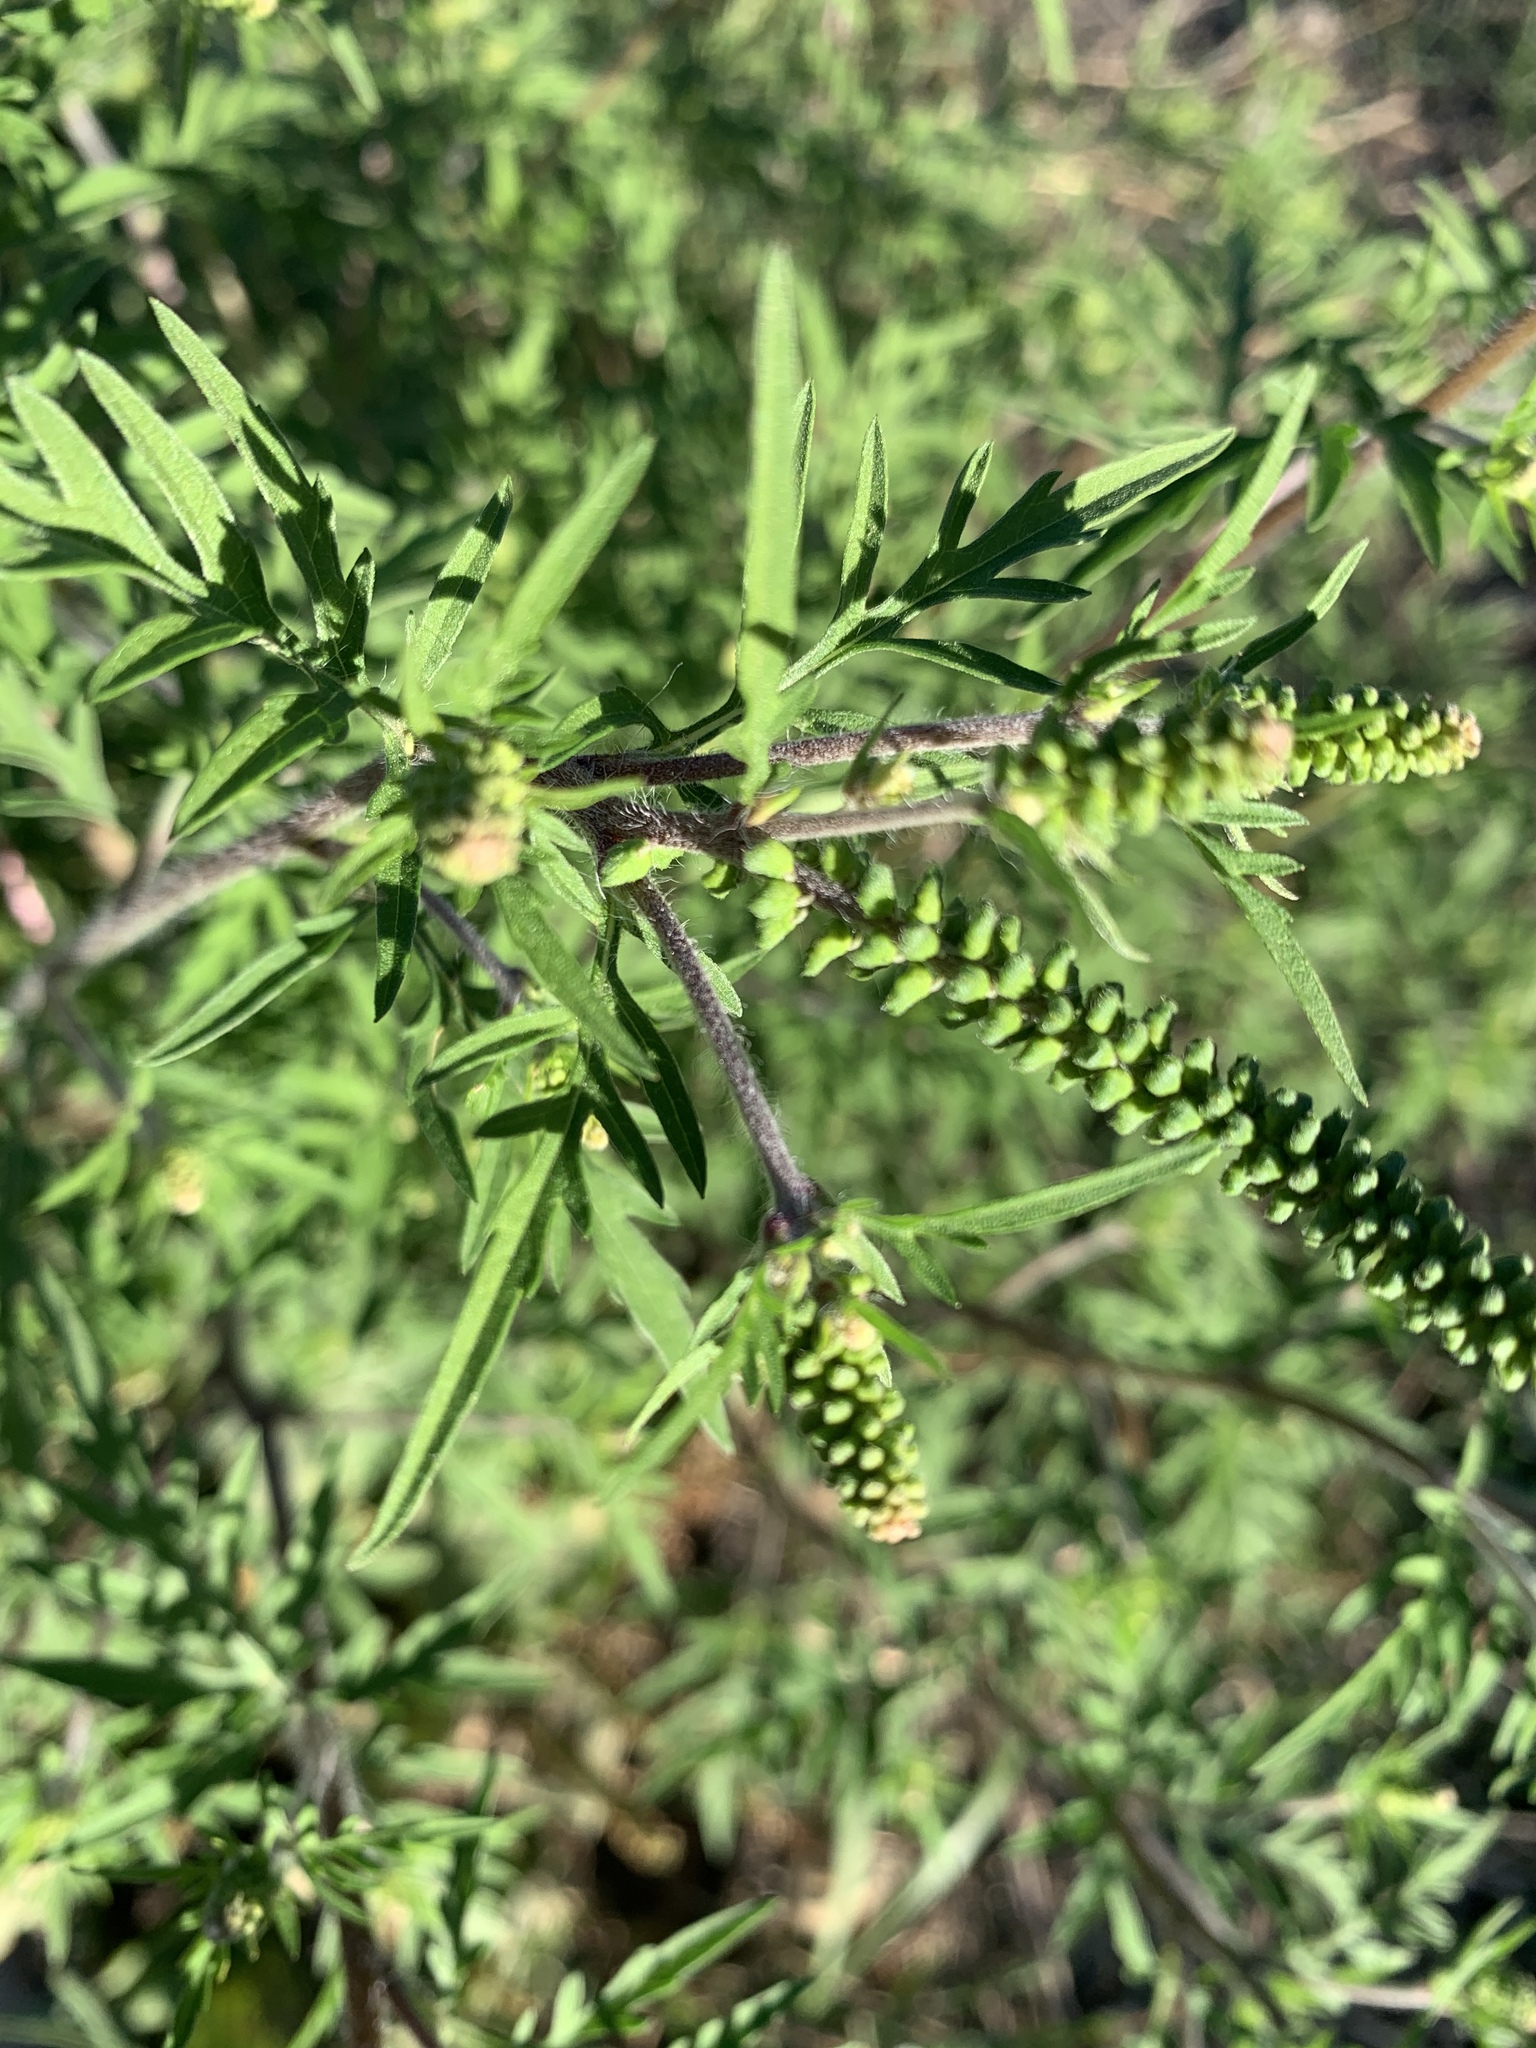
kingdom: Plantae
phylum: Tracheophyta
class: Magnoliopsida
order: Asterales
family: Asteraceae
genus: Ambrosia
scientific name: Ambrosia artemisiifolia
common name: Annual ragweed
